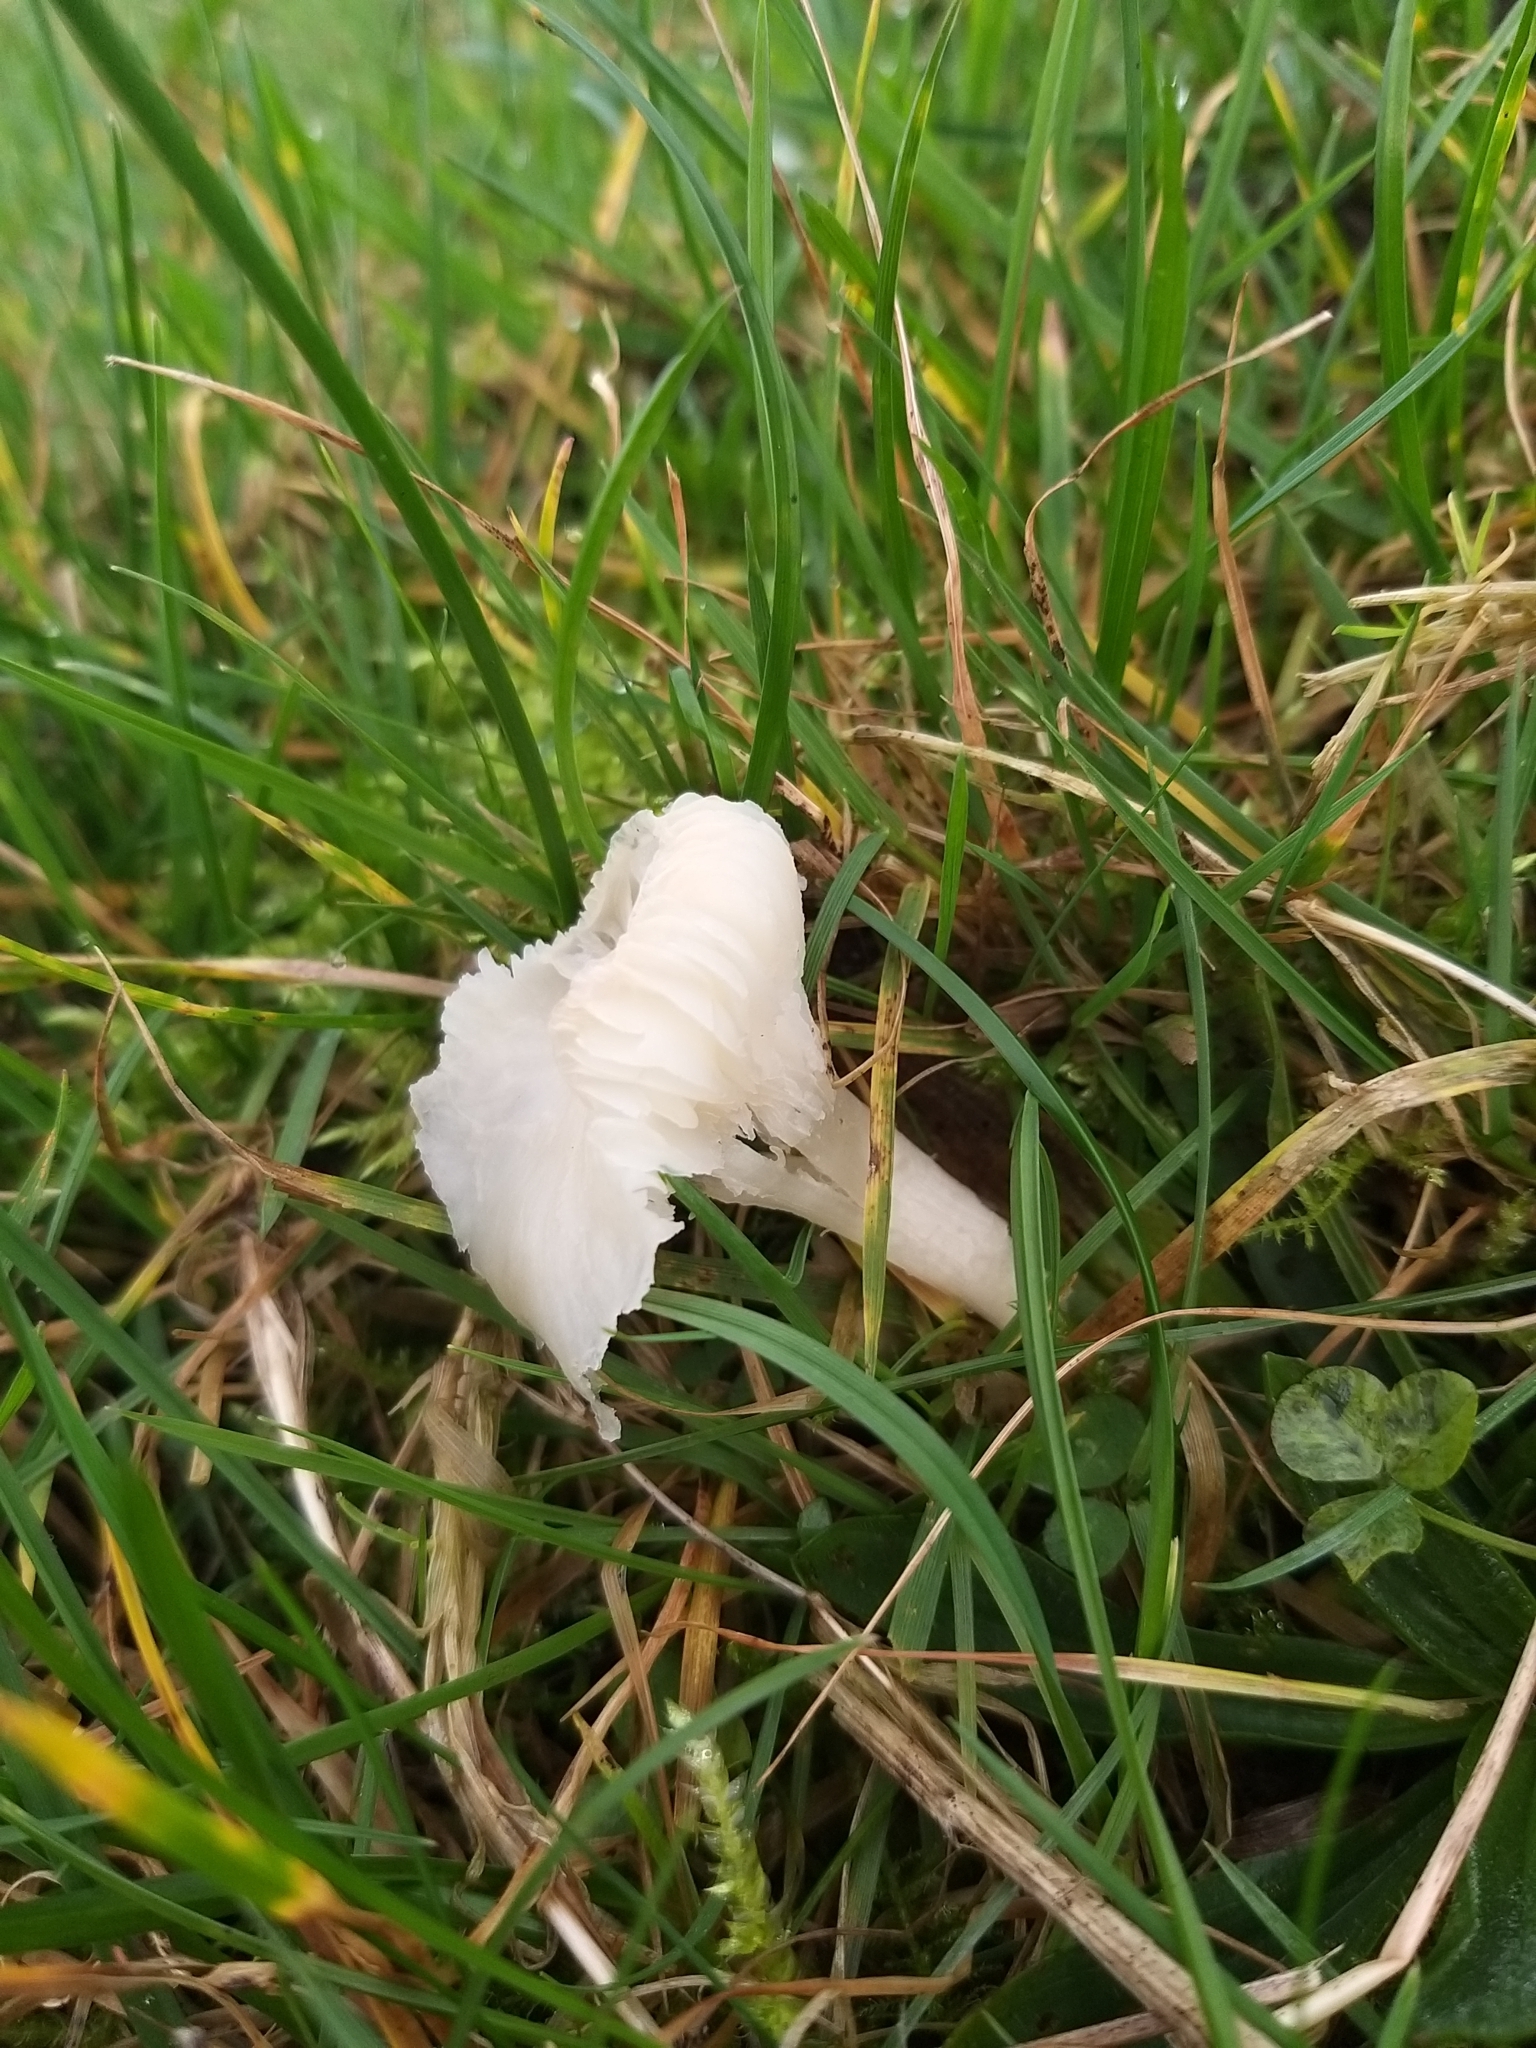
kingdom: Fungi
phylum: Basidiomycota
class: Agaricomycetes
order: Agaricales
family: Hygrophoraceae
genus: Cuphophyllus
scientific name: Cuphophyllus virgineus
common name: Snowy waxcap
